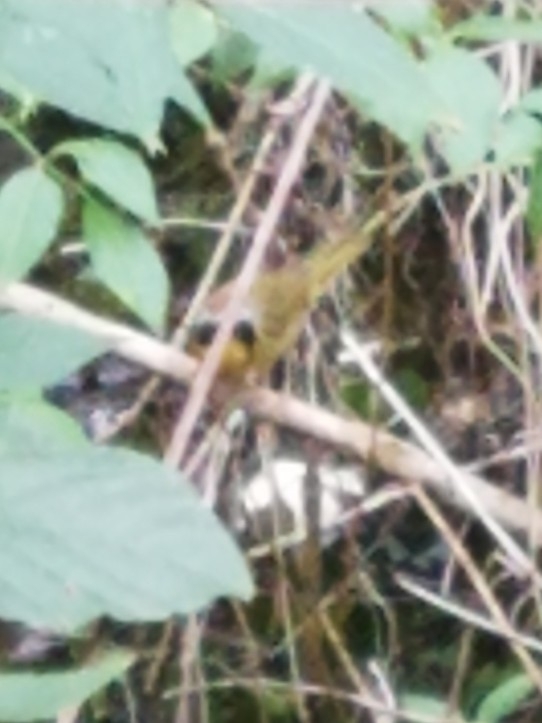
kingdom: Animalia
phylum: Chordata
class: Aves
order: Passeriformes
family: Parulidae
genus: Geothlypis
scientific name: Geothlypis trichas
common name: Common yellowthroat
